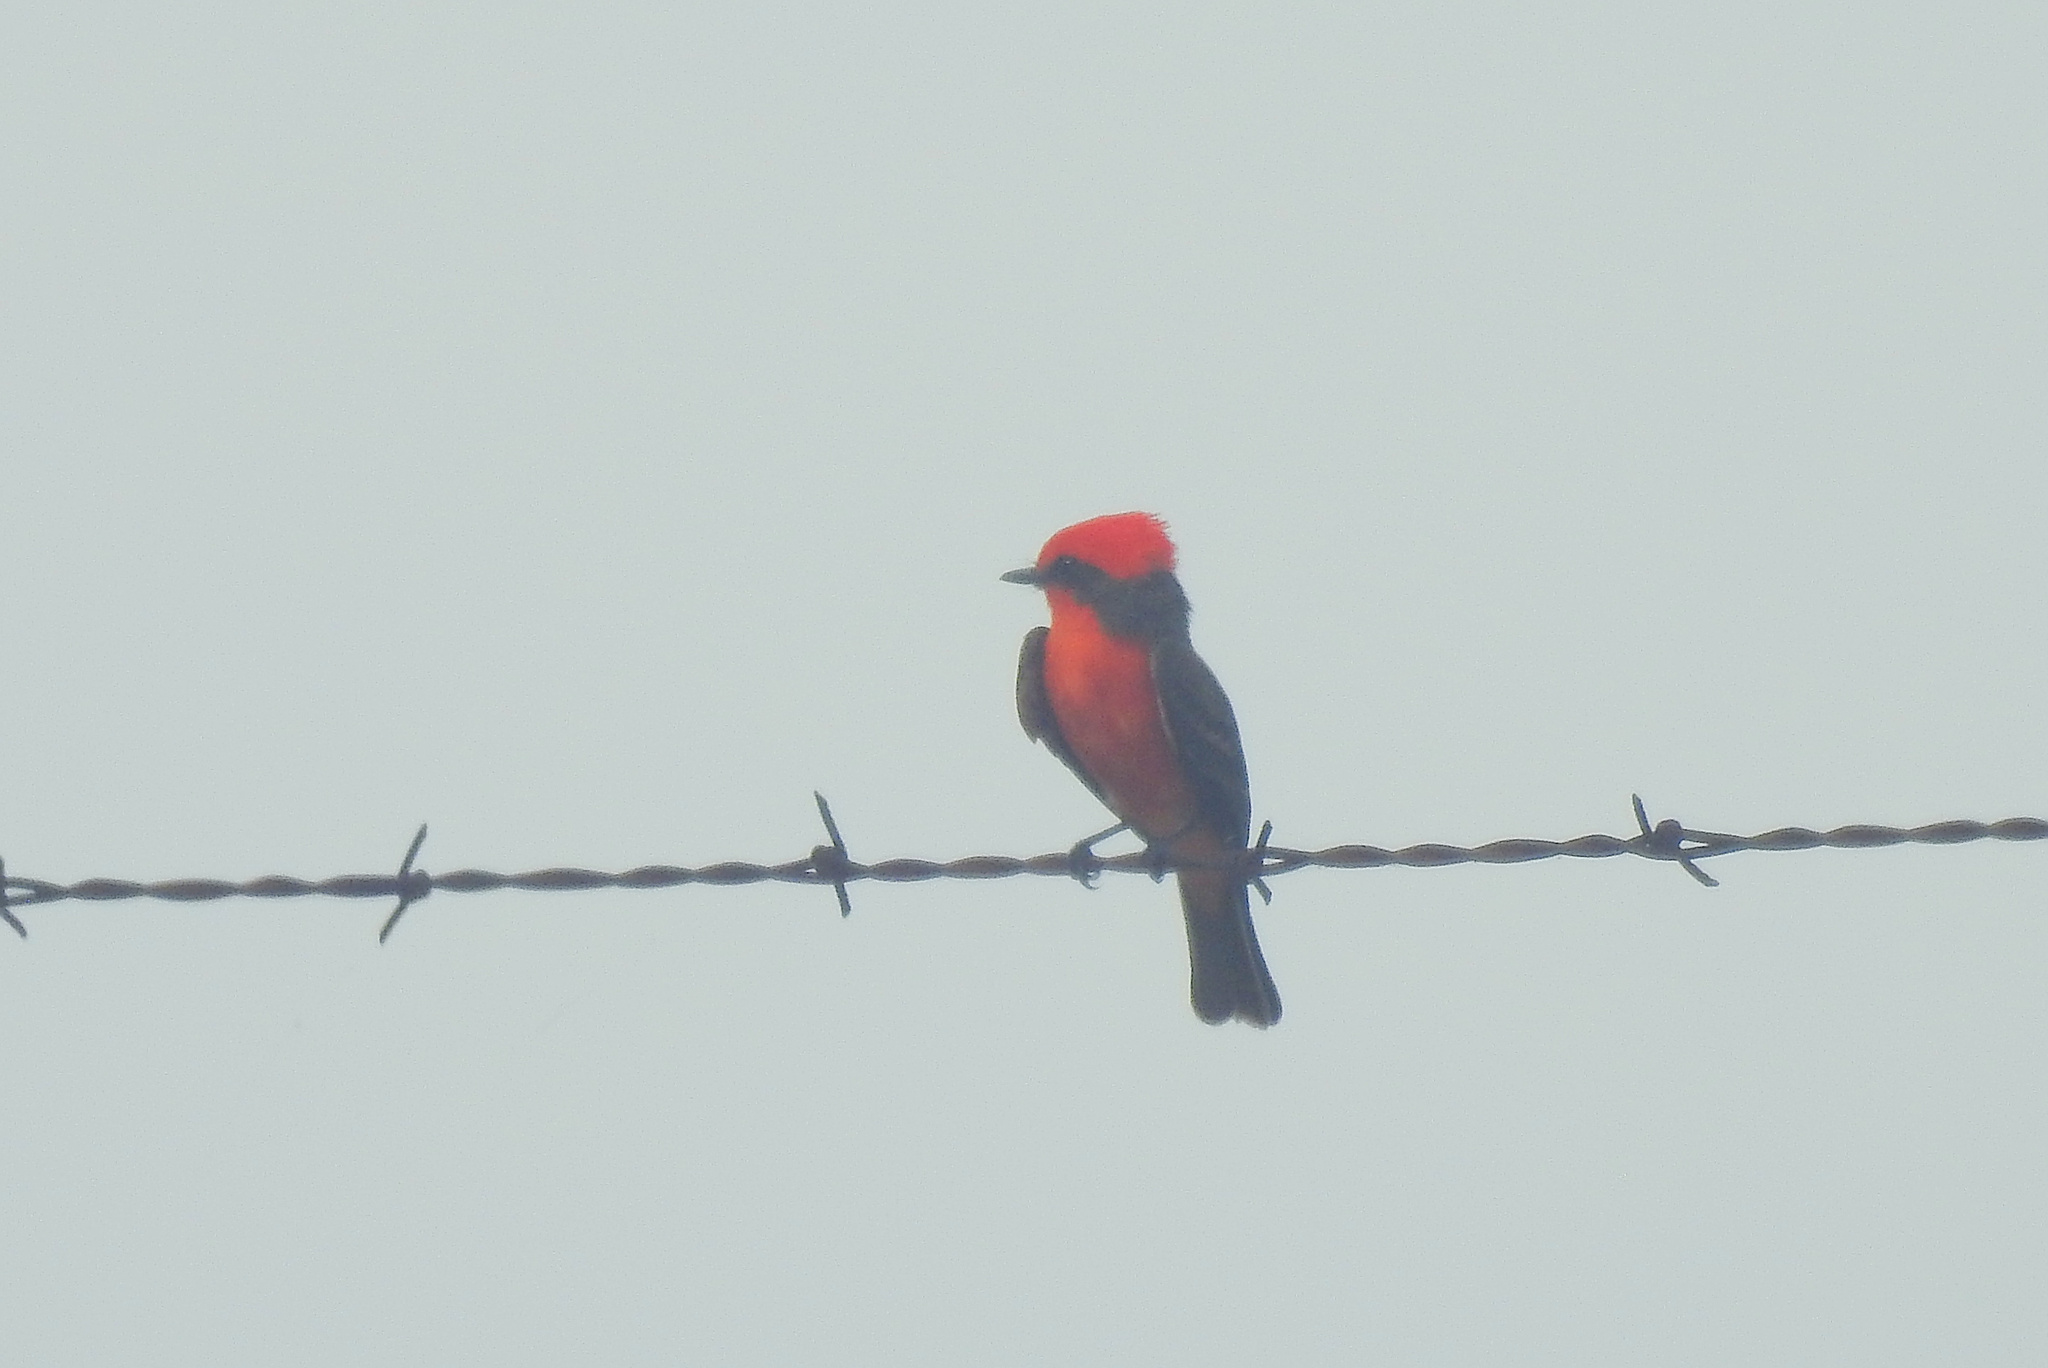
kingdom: Animalia
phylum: Chordata
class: Aves
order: Passeriformes
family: Tyrannidae
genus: Pyrocephalus
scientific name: Pyrocephalus rubinus
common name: Vermilion flycatcher
